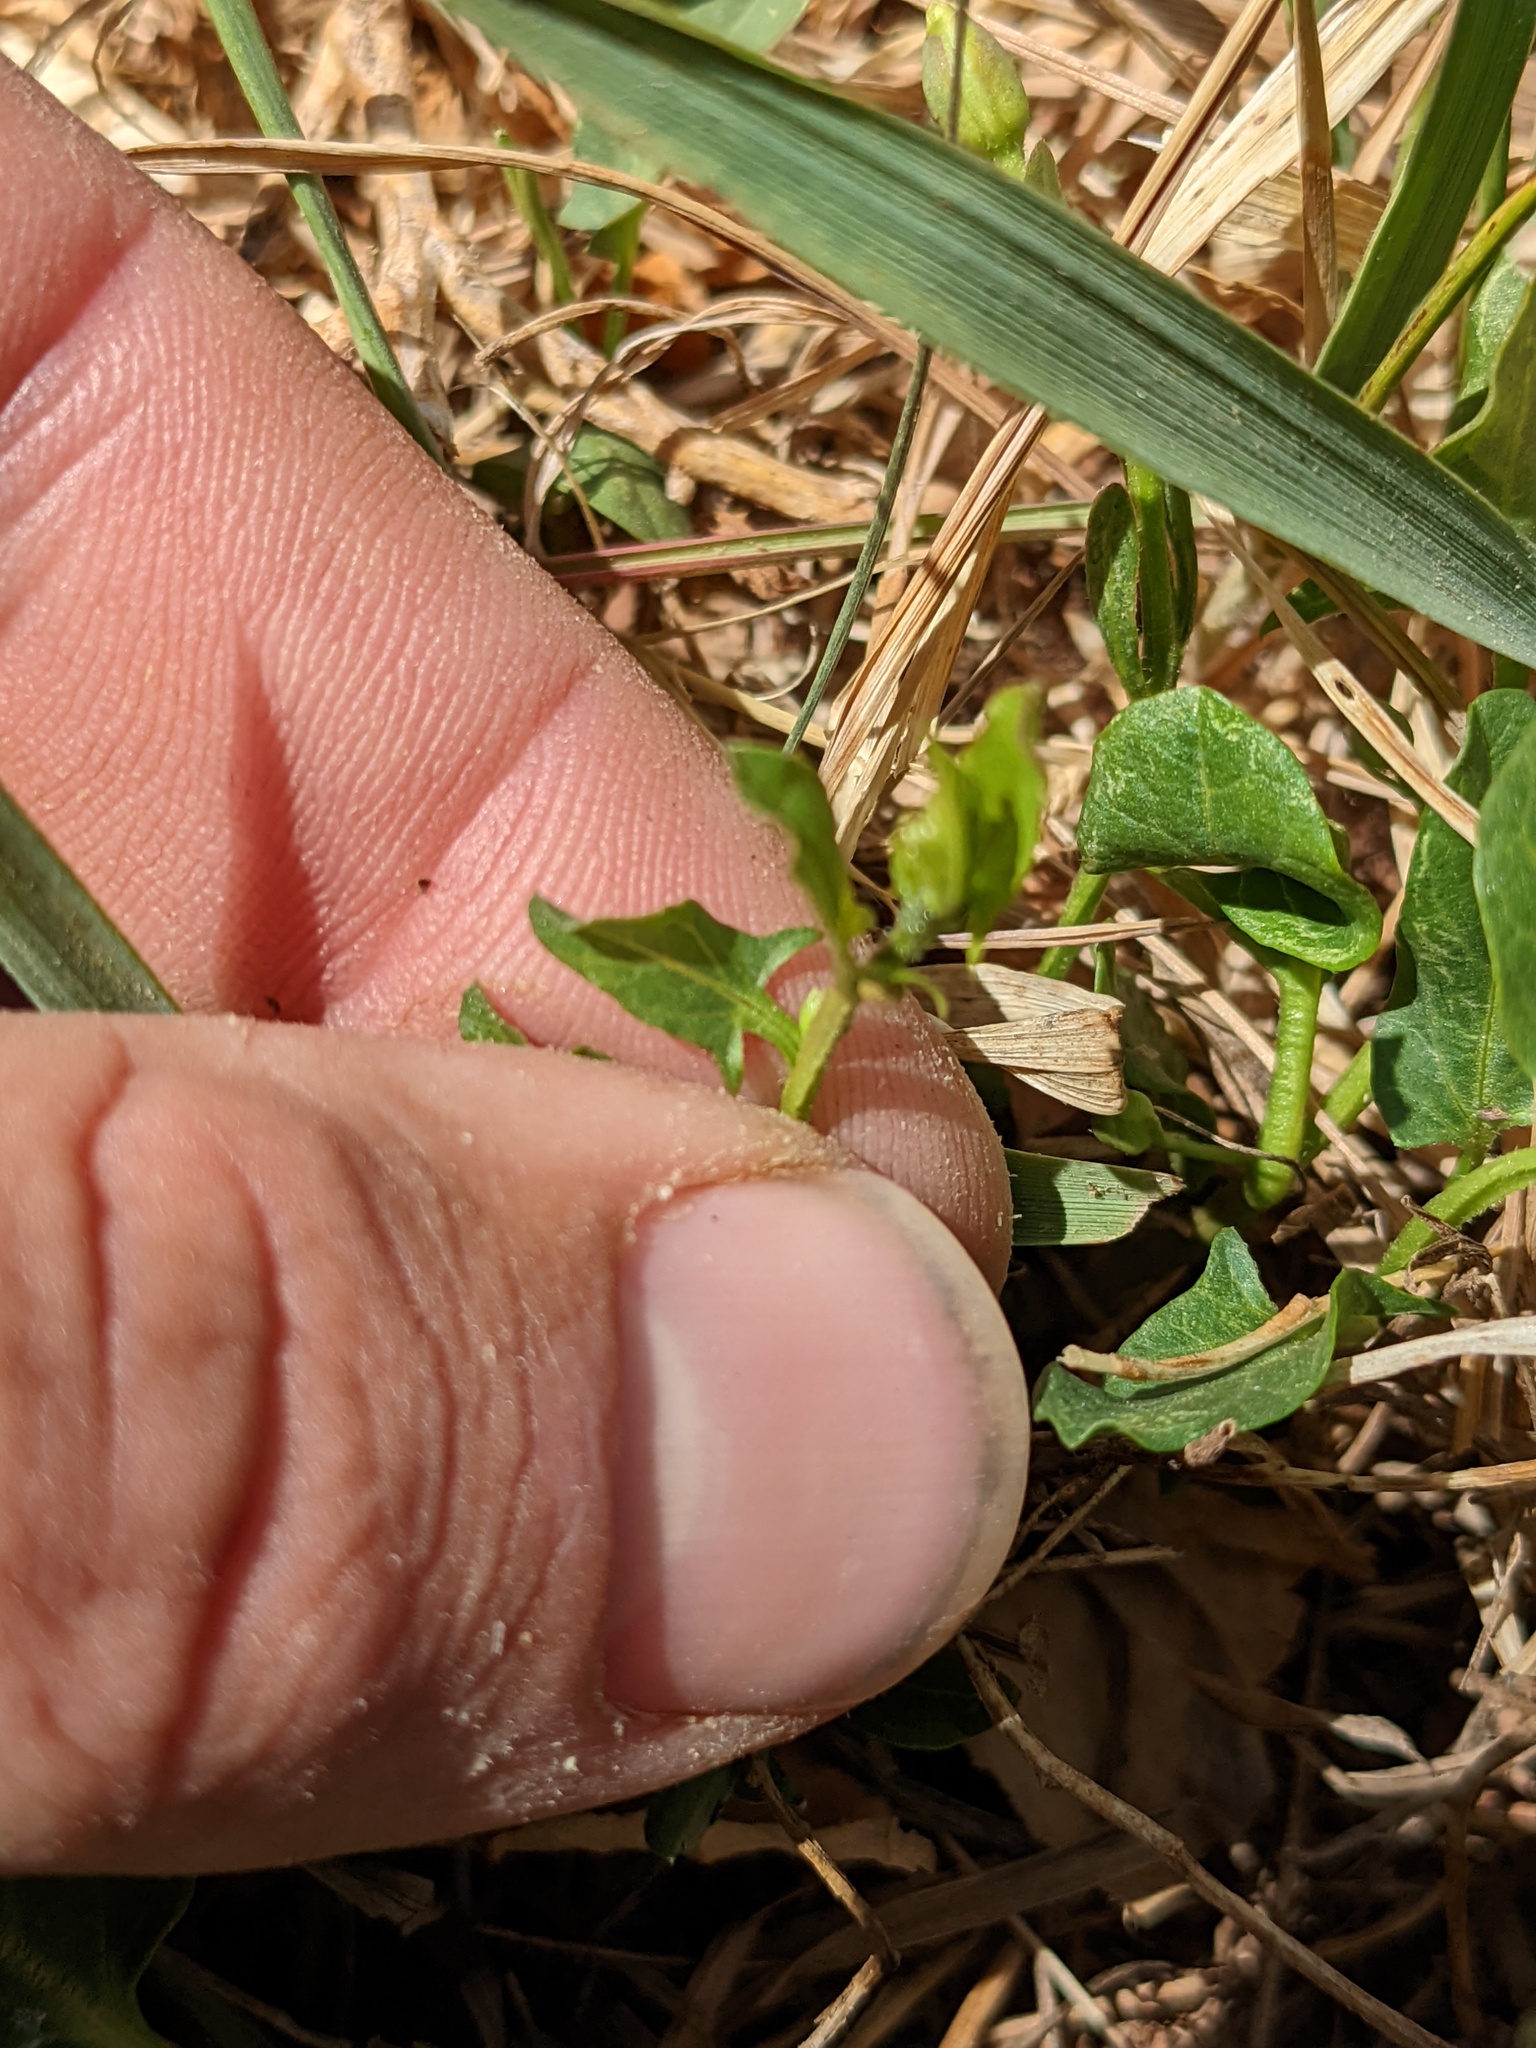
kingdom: Plantae
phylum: Tracheophyta
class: Magnoliopsida
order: Solanales
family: Convolvulaceae
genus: Convolvulus
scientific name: Convolvulus arvensis
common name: Field bindweed
